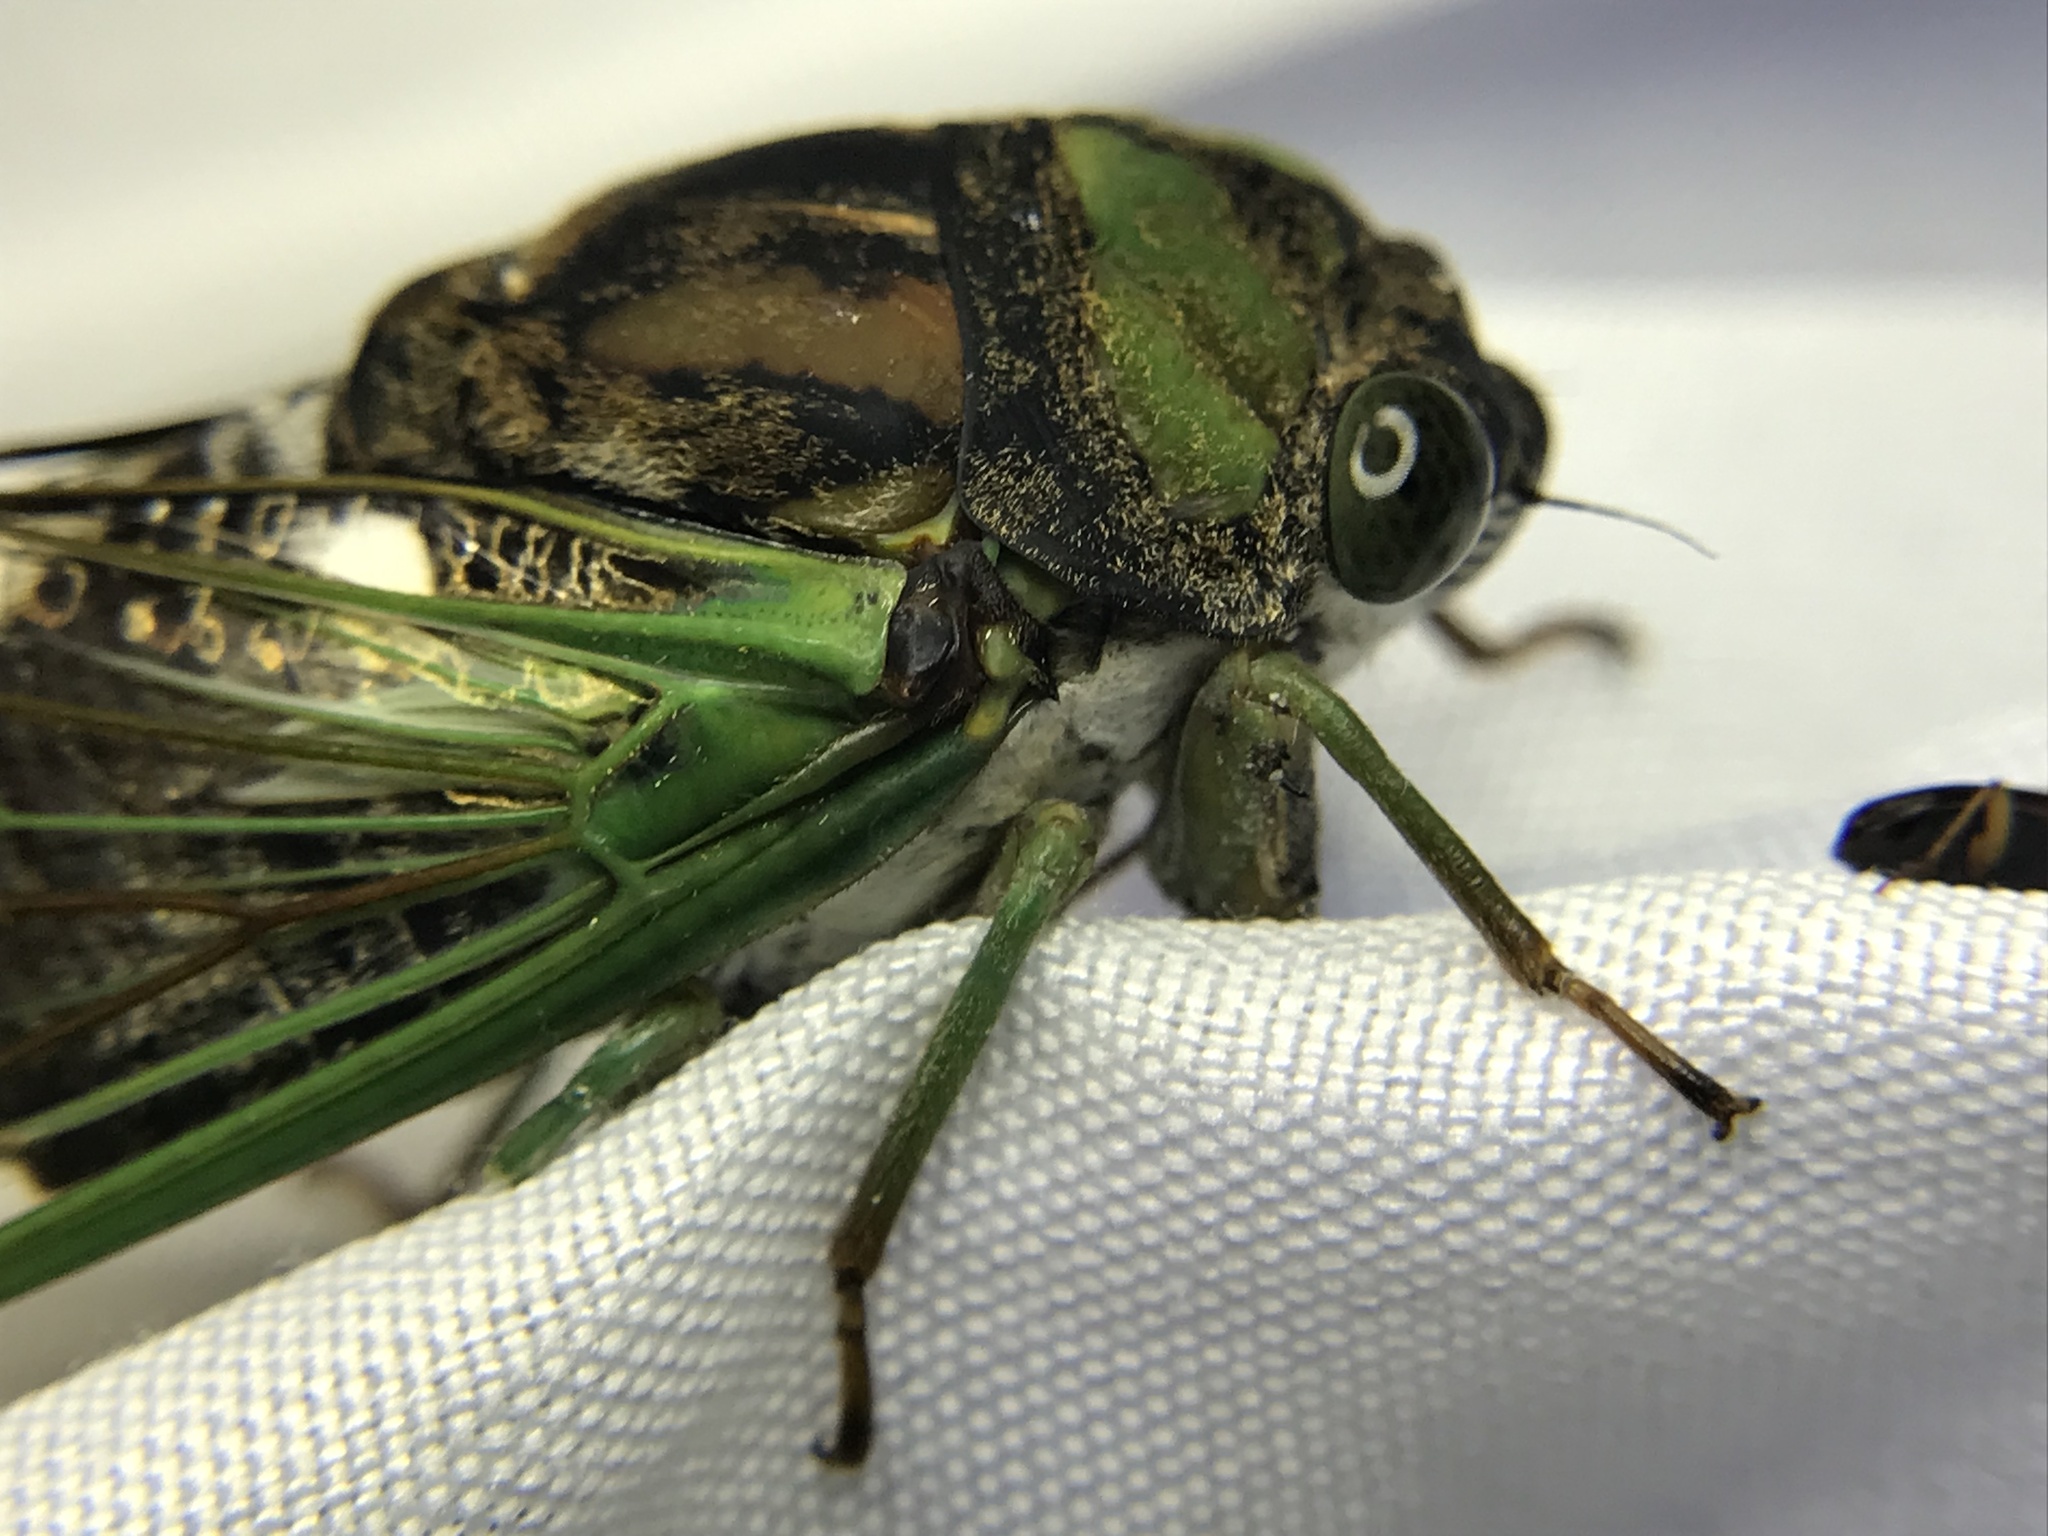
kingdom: Animalia
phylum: Arthropoda
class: Insecta
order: Hemiptera
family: Cicadidae
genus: Neotibicen
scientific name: Neotibicen tibicen
